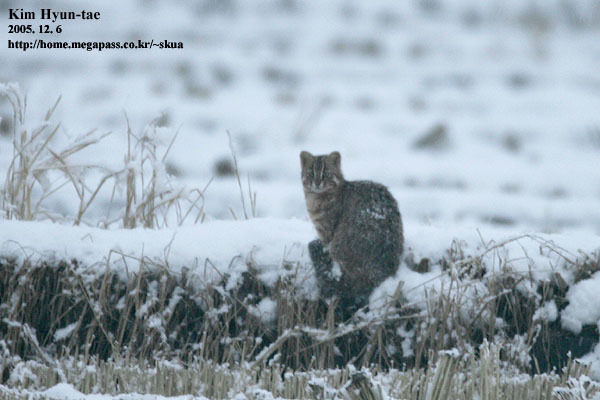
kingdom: Animalia
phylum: Chordata
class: Mammalia
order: Carnivora
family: Felidae
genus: Prionailurus
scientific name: Prionailurus bengalensis
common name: Leopard cat
